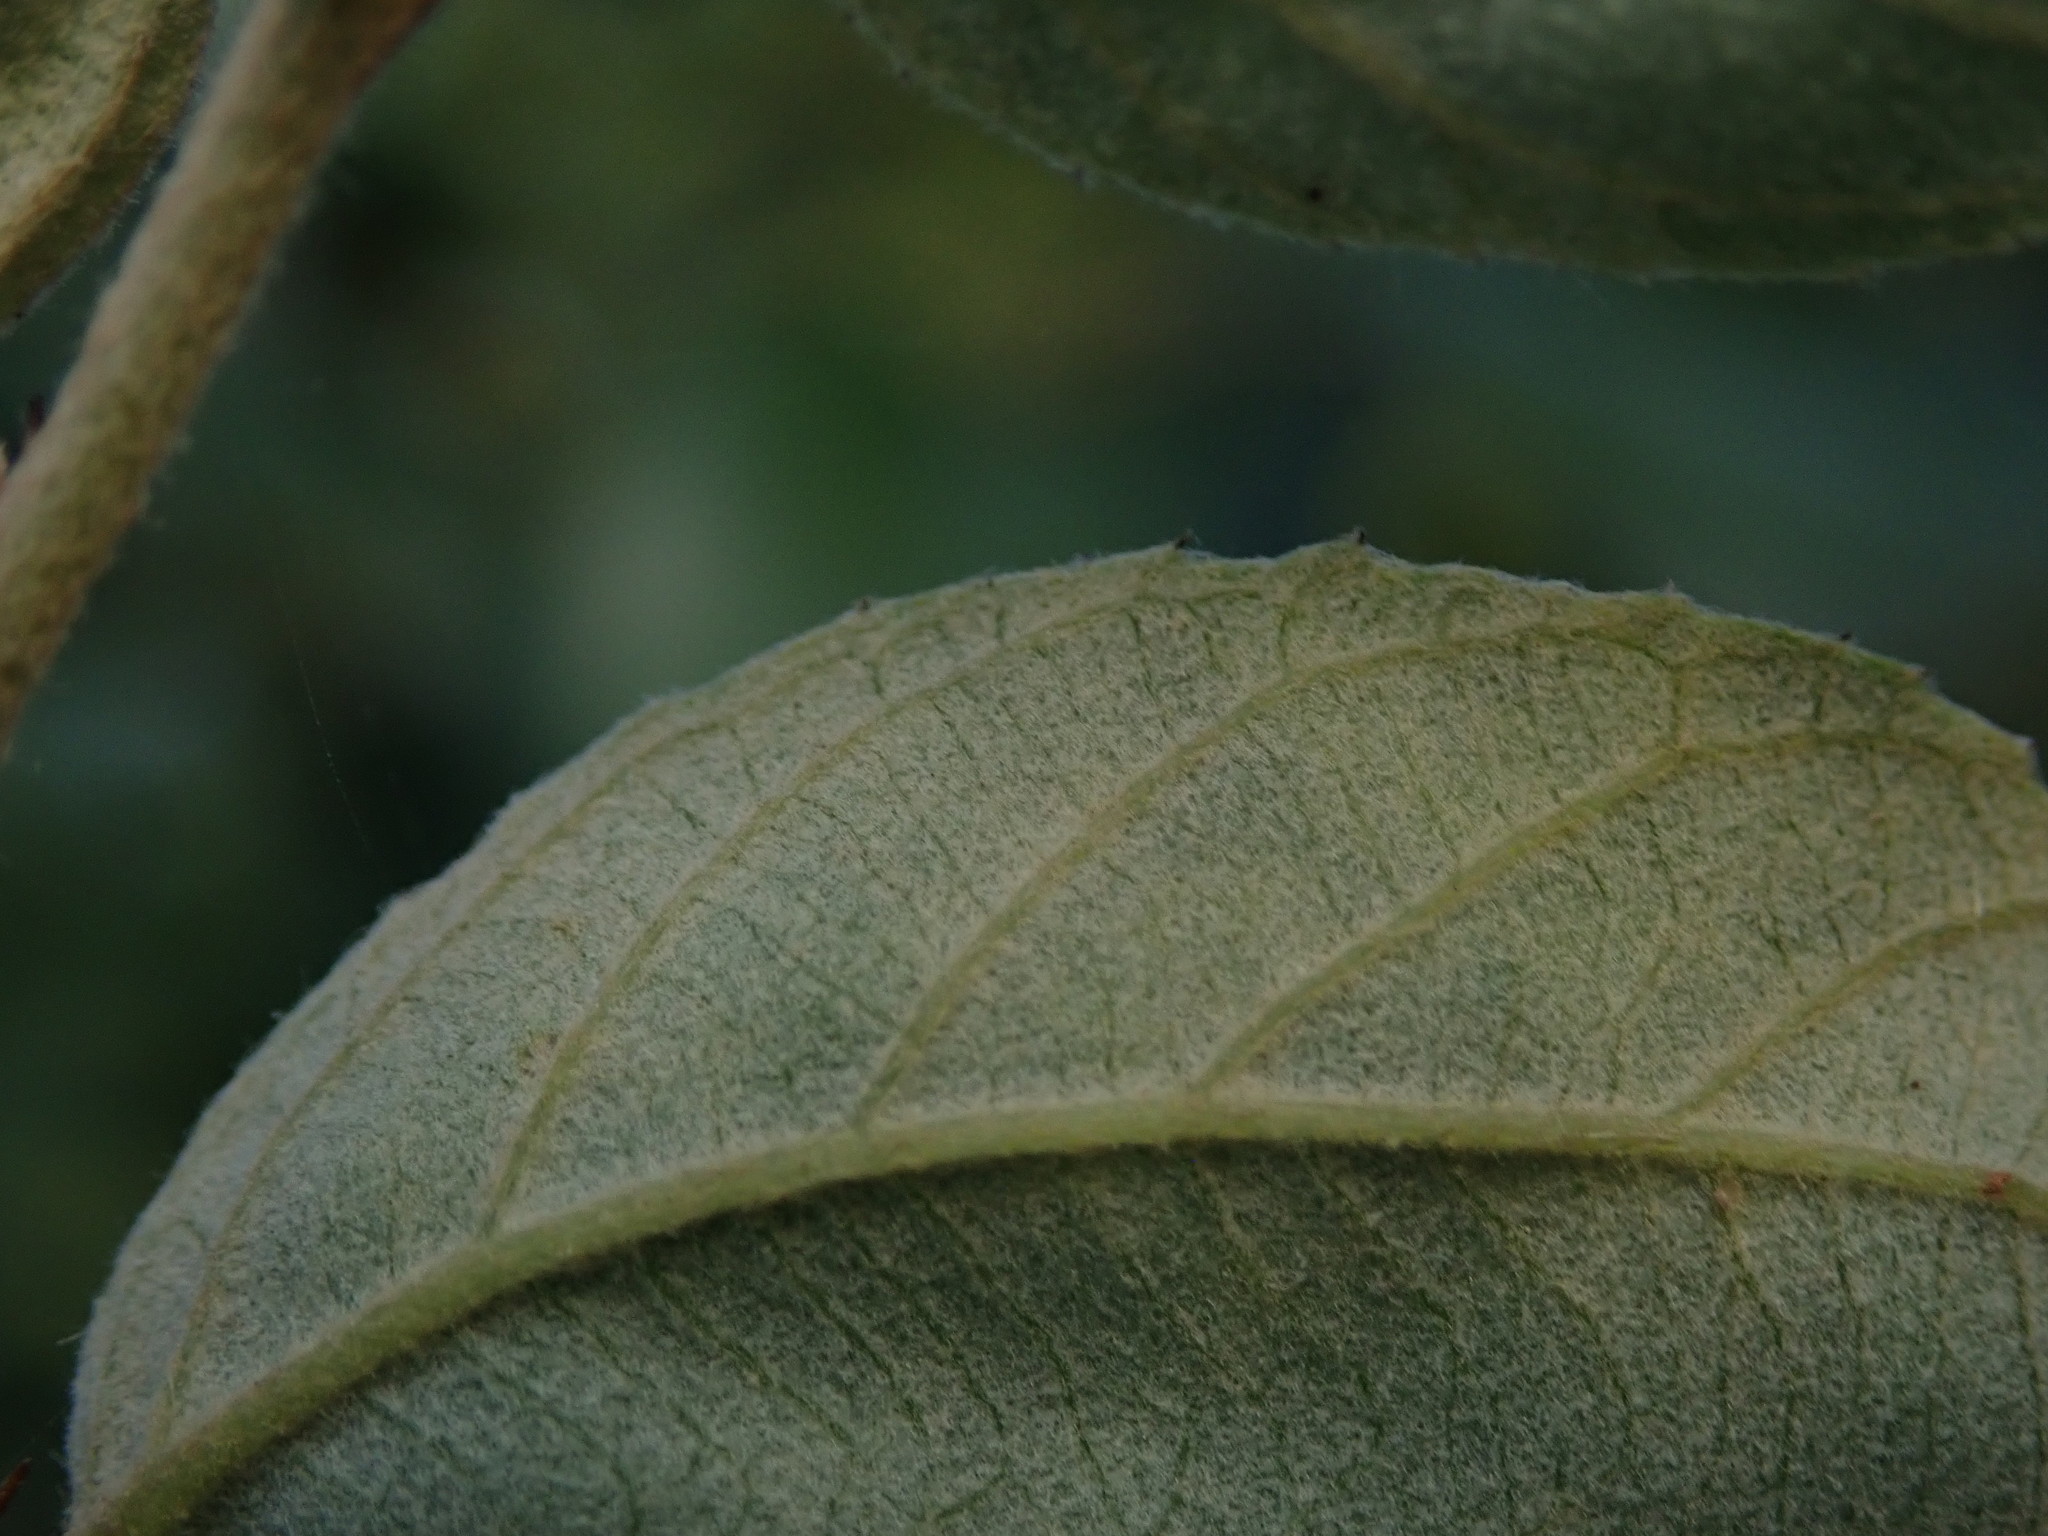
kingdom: Plantae
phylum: Tracheophyta
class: Magnoliopsida
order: Rosales
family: Rhamnaceae
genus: Ziziphus
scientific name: Ziziphus mauritiana
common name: Indian jujube
